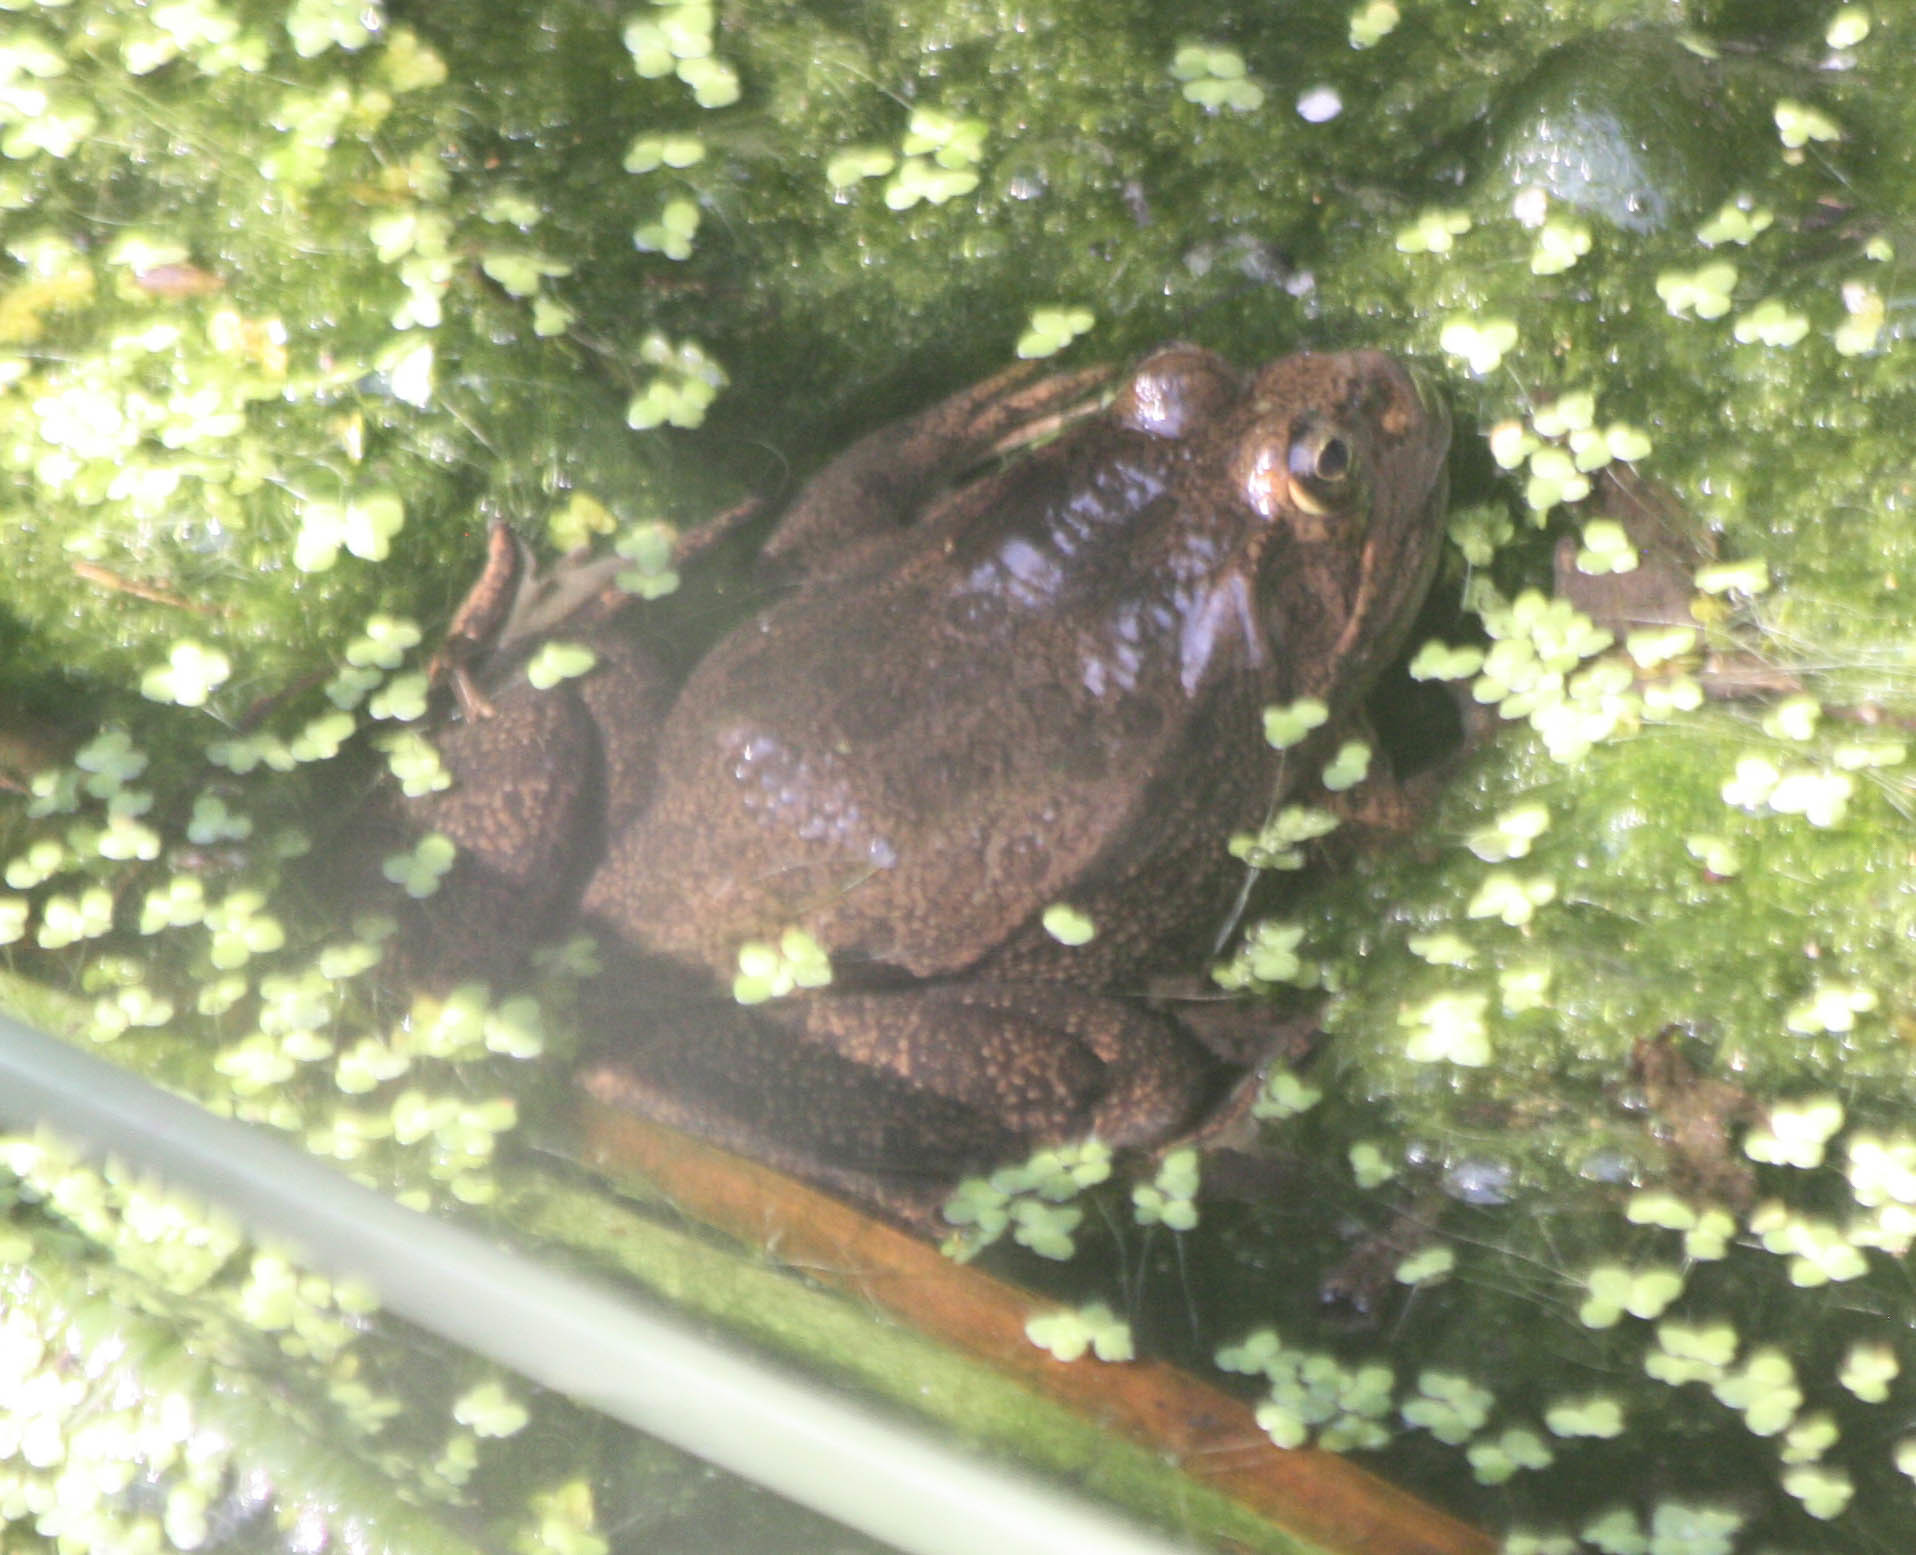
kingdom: Animalia
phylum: Chordata
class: Amphibia
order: Anura
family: Ranidae
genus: Lithobates
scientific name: Lithobates montezumae
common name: Montezuma leopard frog
